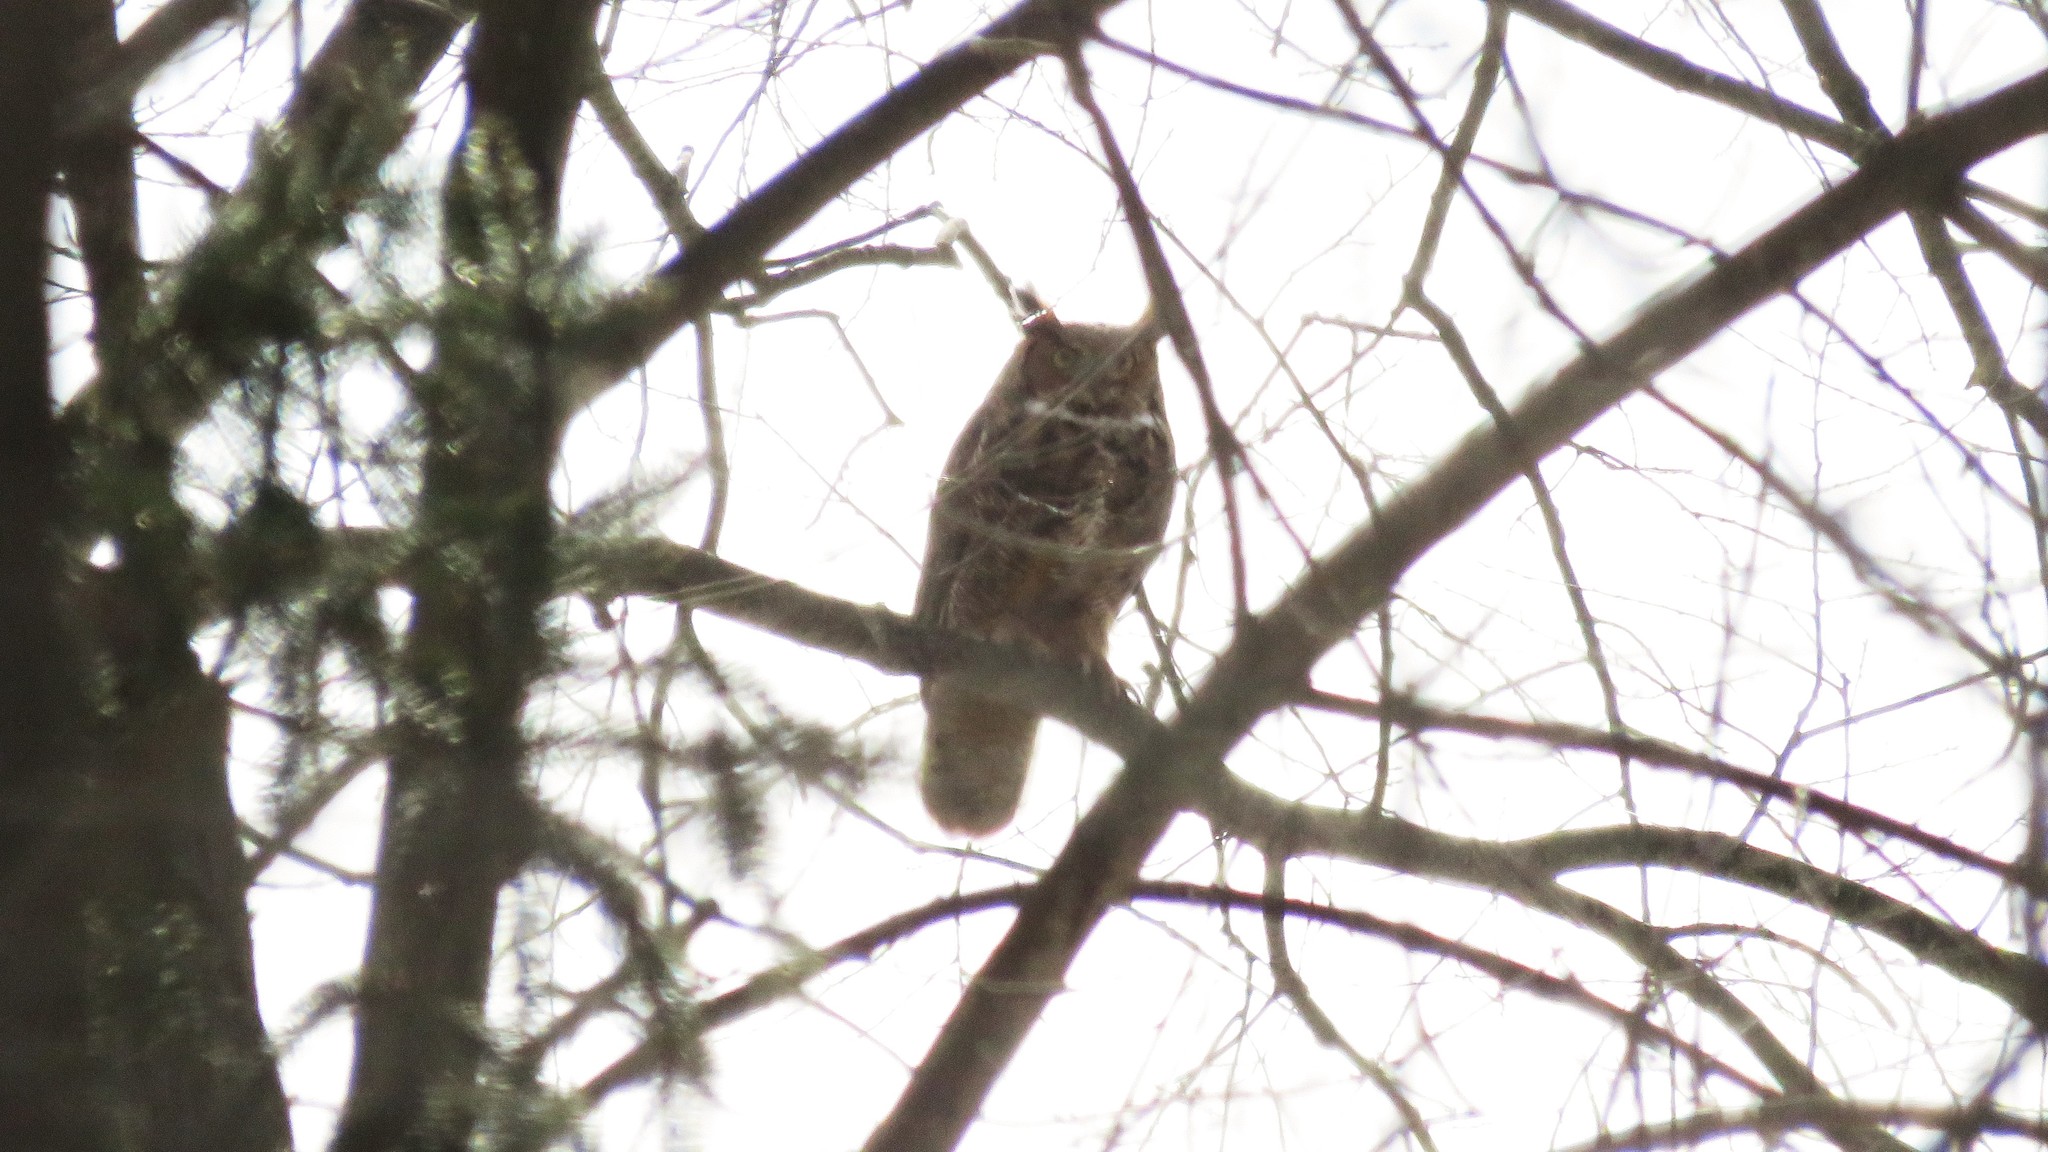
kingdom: Animalia
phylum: Chordata
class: Aves
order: Strigiformes
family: Strigidae
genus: Bubo
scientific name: Bubo virginianus
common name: Great horned owl
